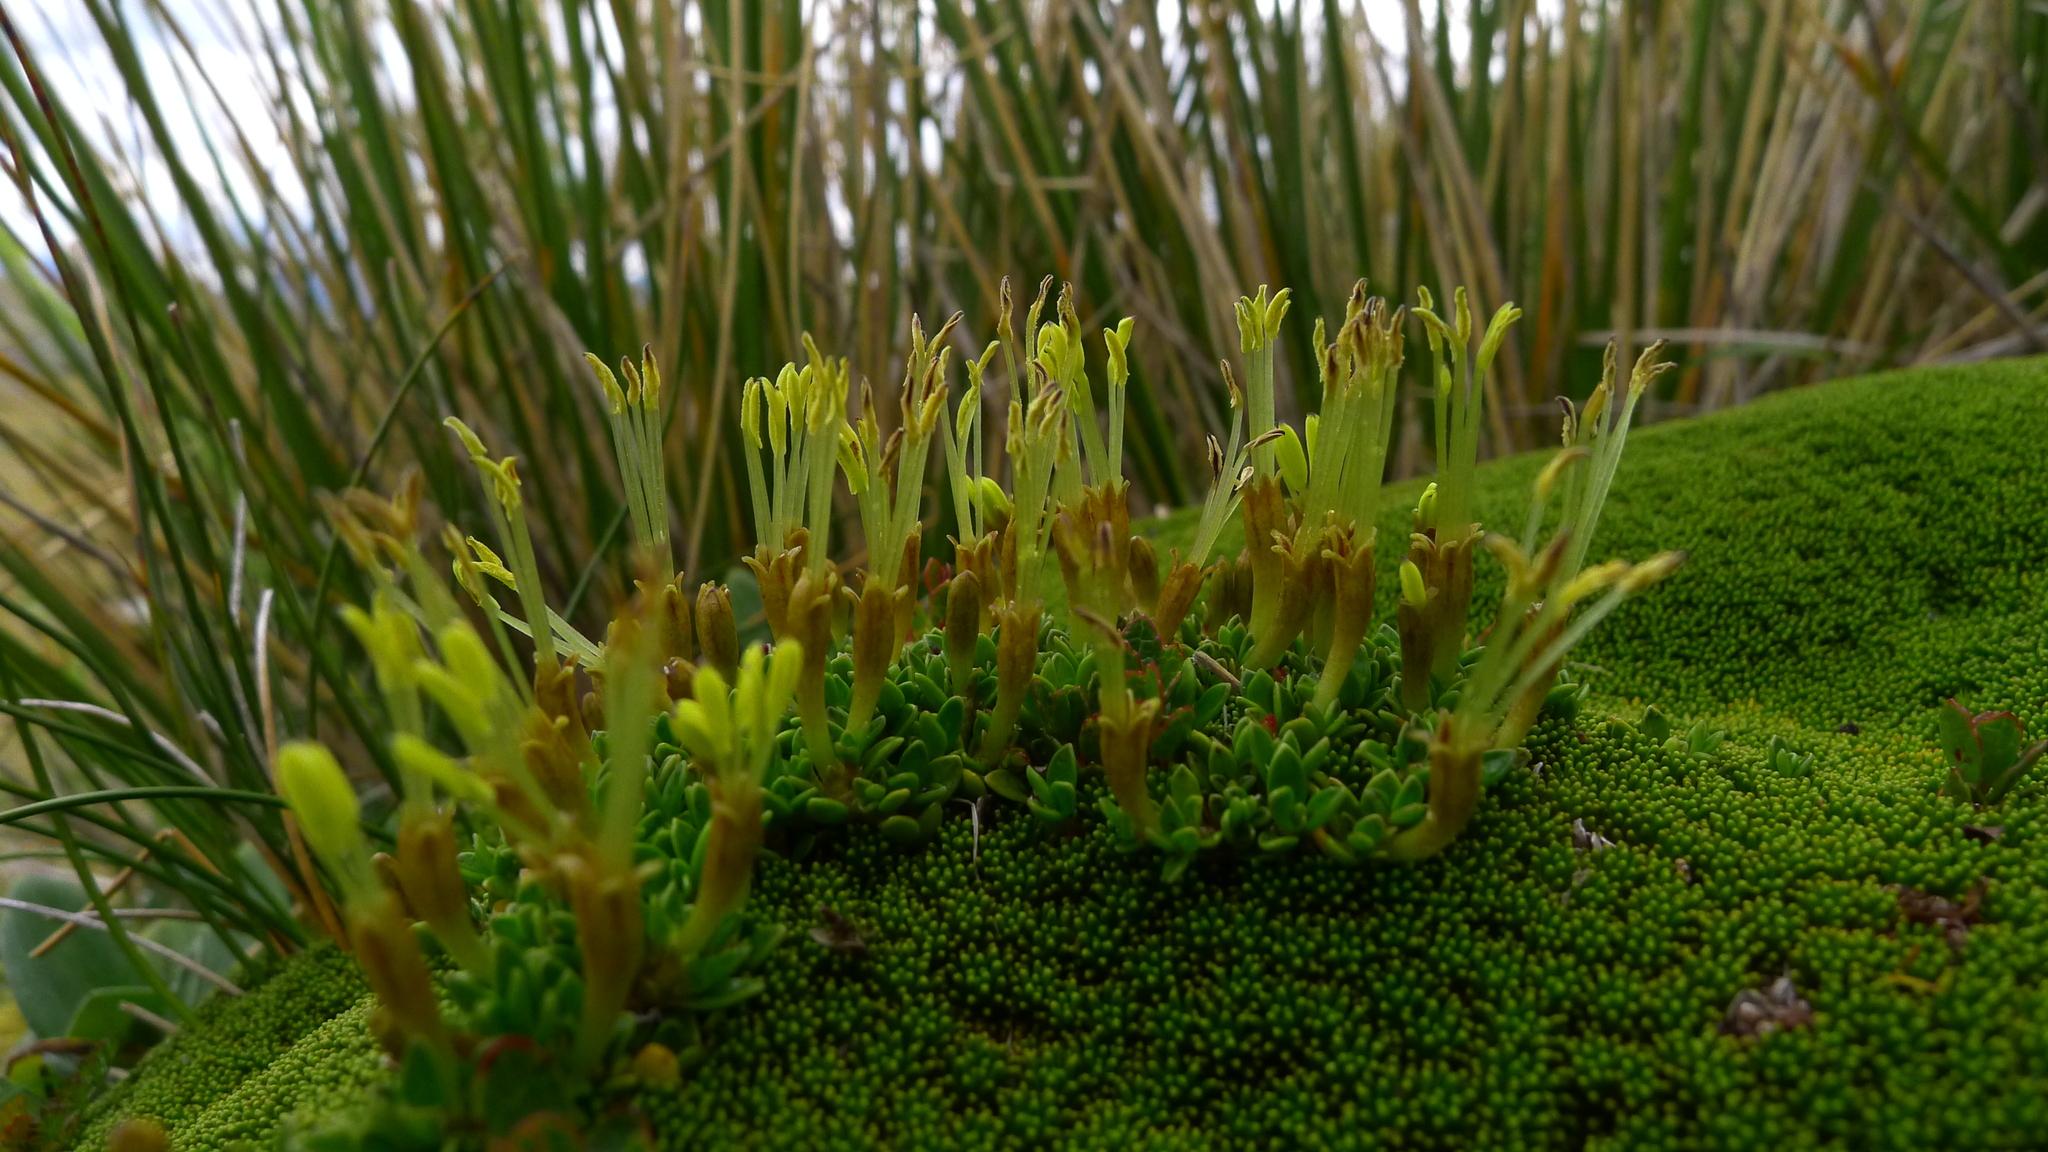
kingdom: Plantae
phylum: Tracheophyta
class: Magnoliopsida
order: Gentianales
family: Rubiaceae
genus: Coprosma
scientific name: Coprosma perpusilla
